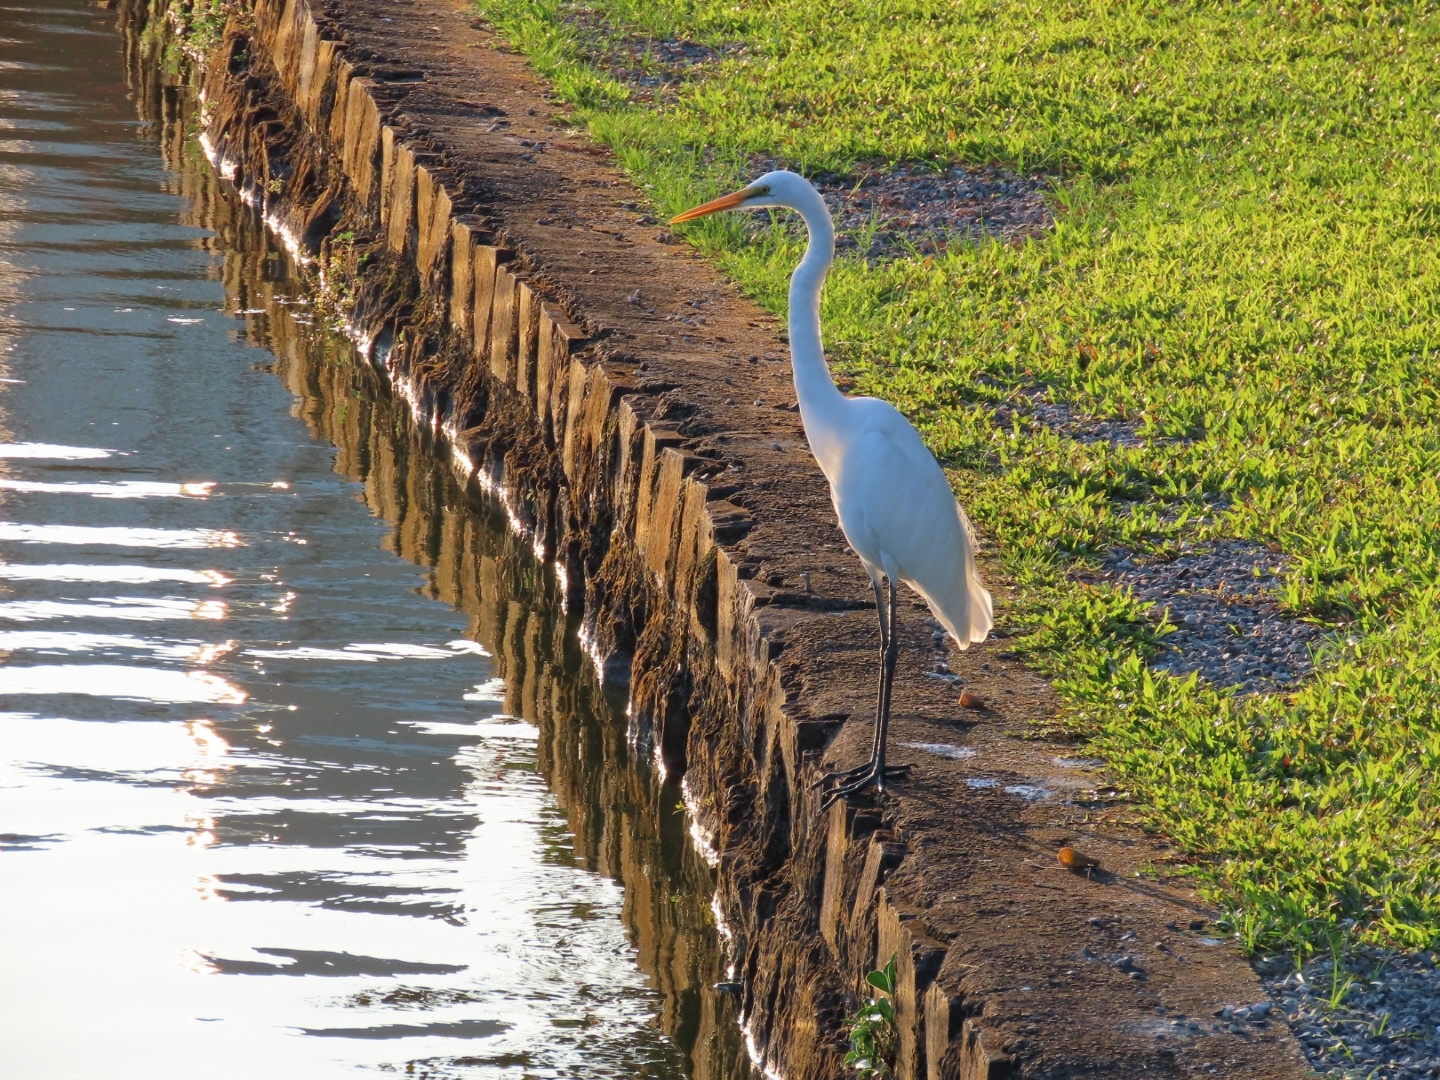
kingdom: Animalia
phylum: Chordata
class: Aves
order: Pelecaniformes
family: Ardeidae
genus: Ardea
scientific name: Ardea alba
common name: Great egret
